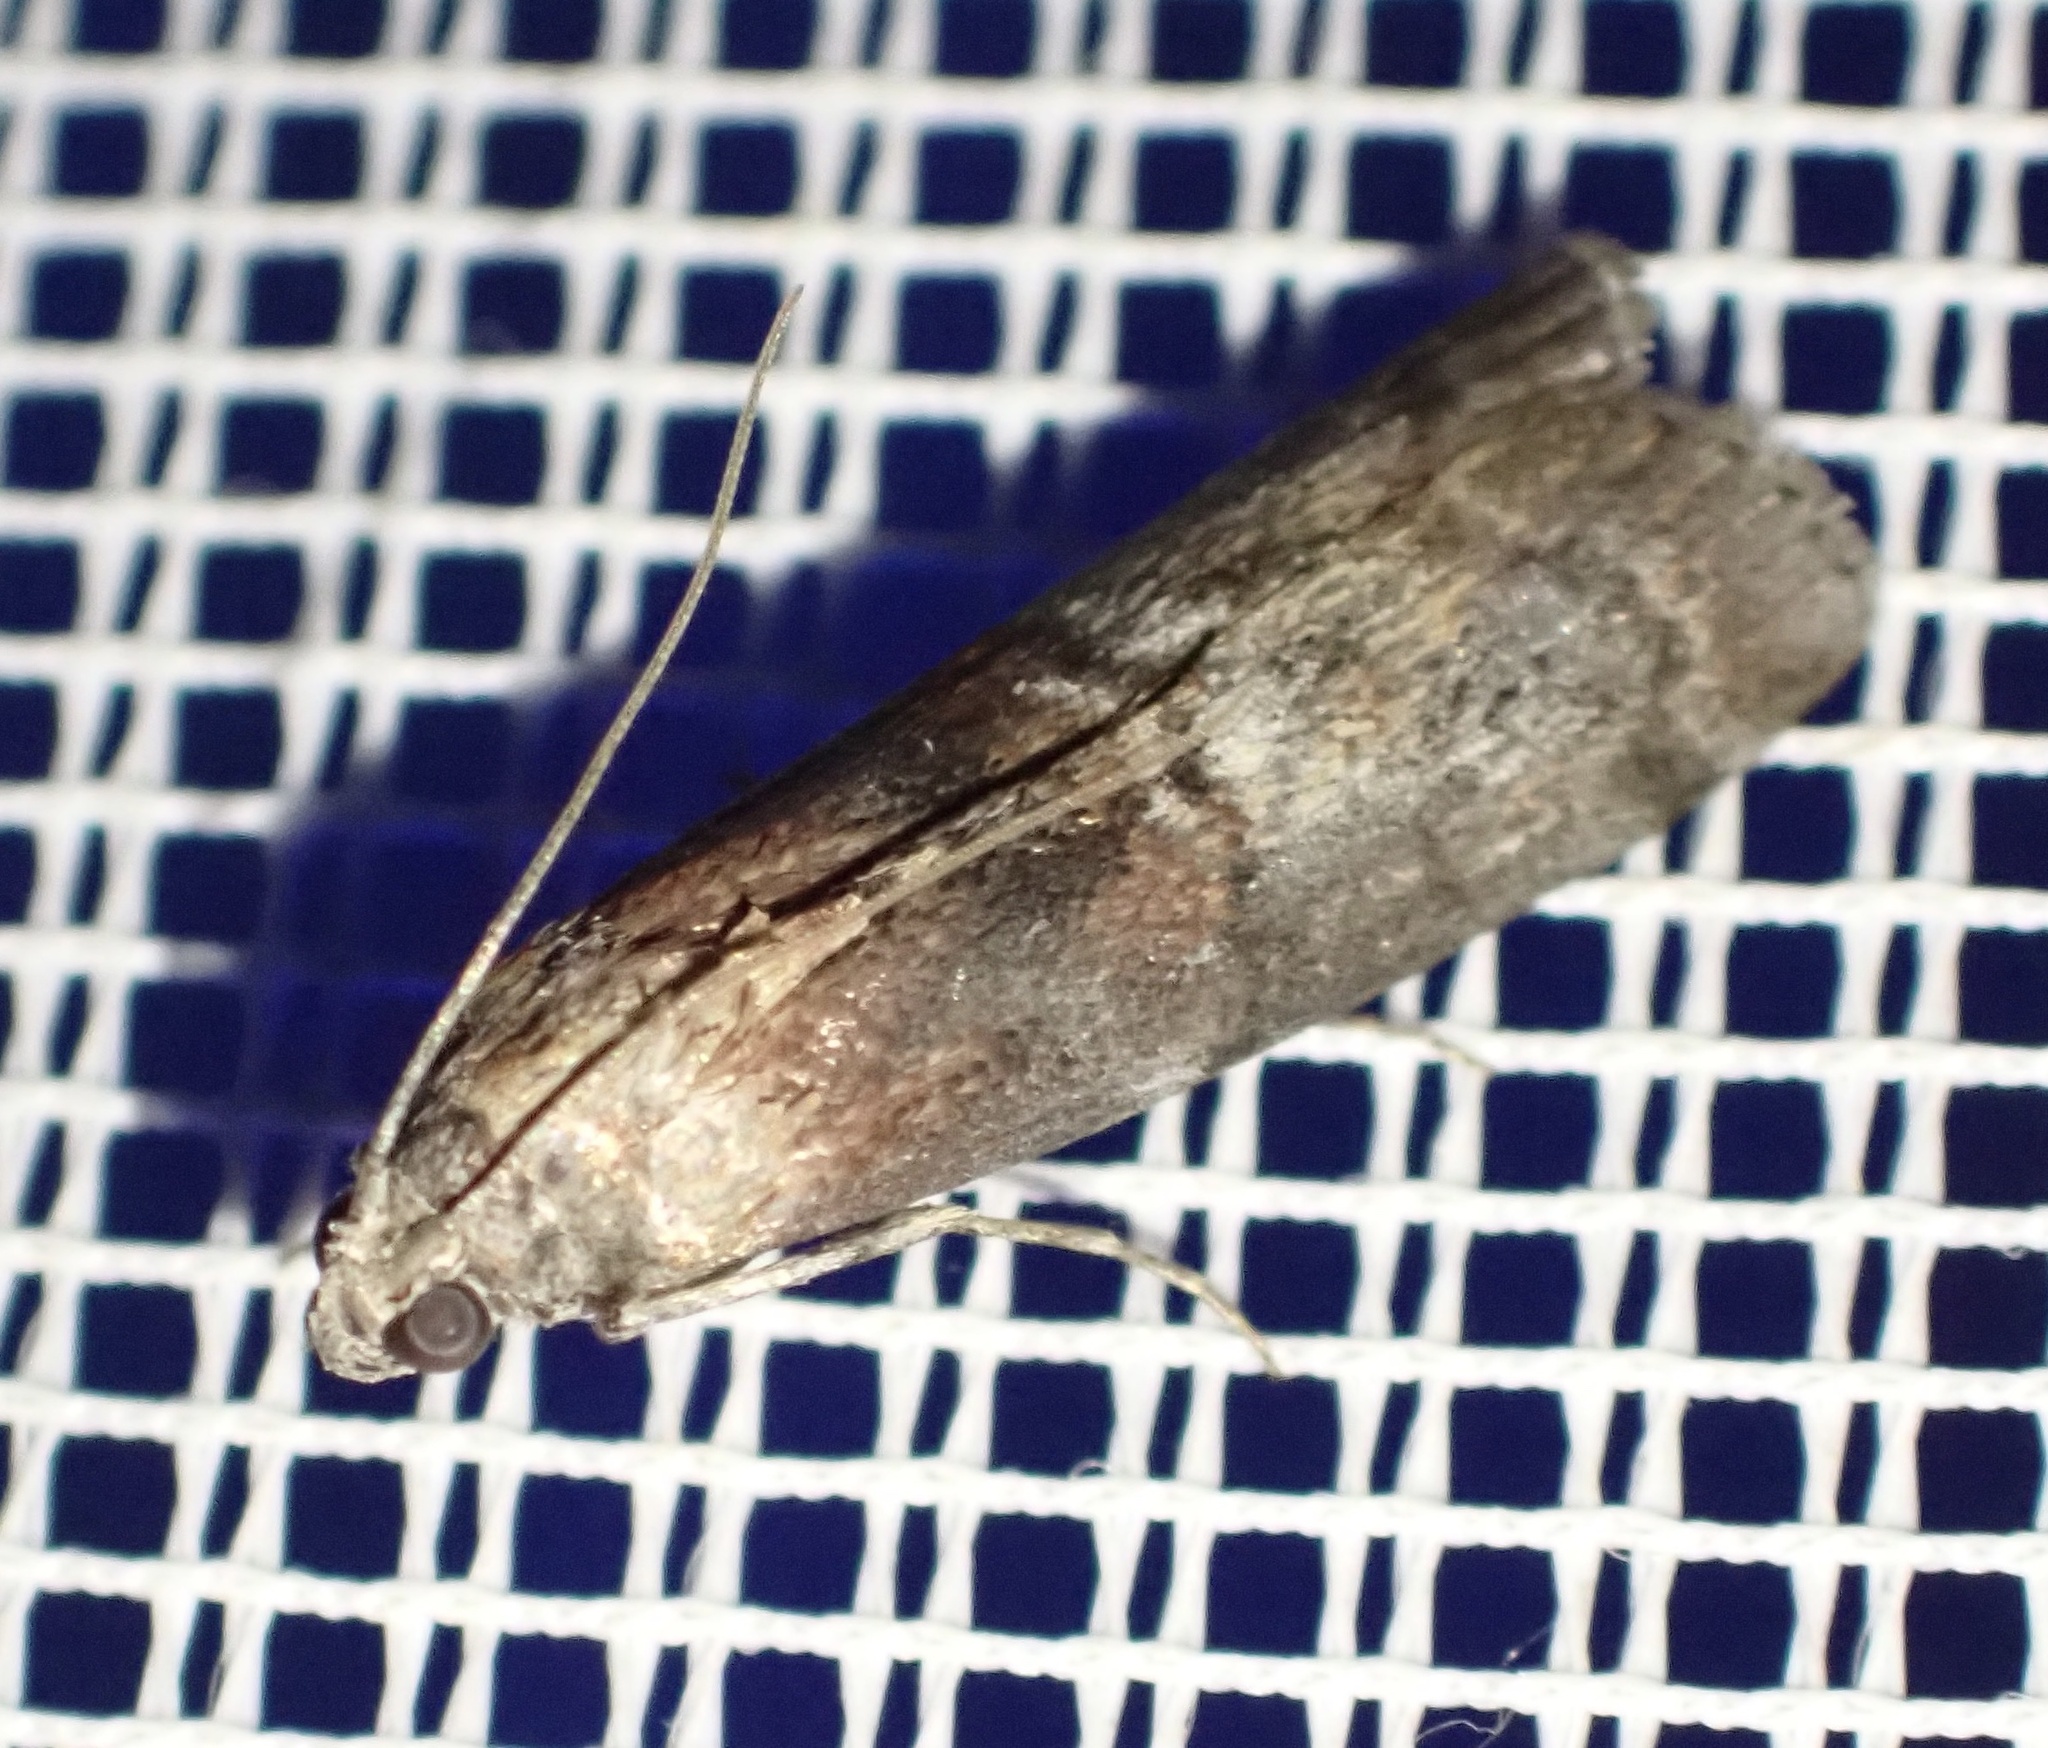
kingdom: Animalia
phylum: Arthropoda
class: Insecta
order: Lepidoptera
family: Pyralidae
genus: Phycita
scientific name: Phycita roborella
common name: Dotted oak knot-horn
